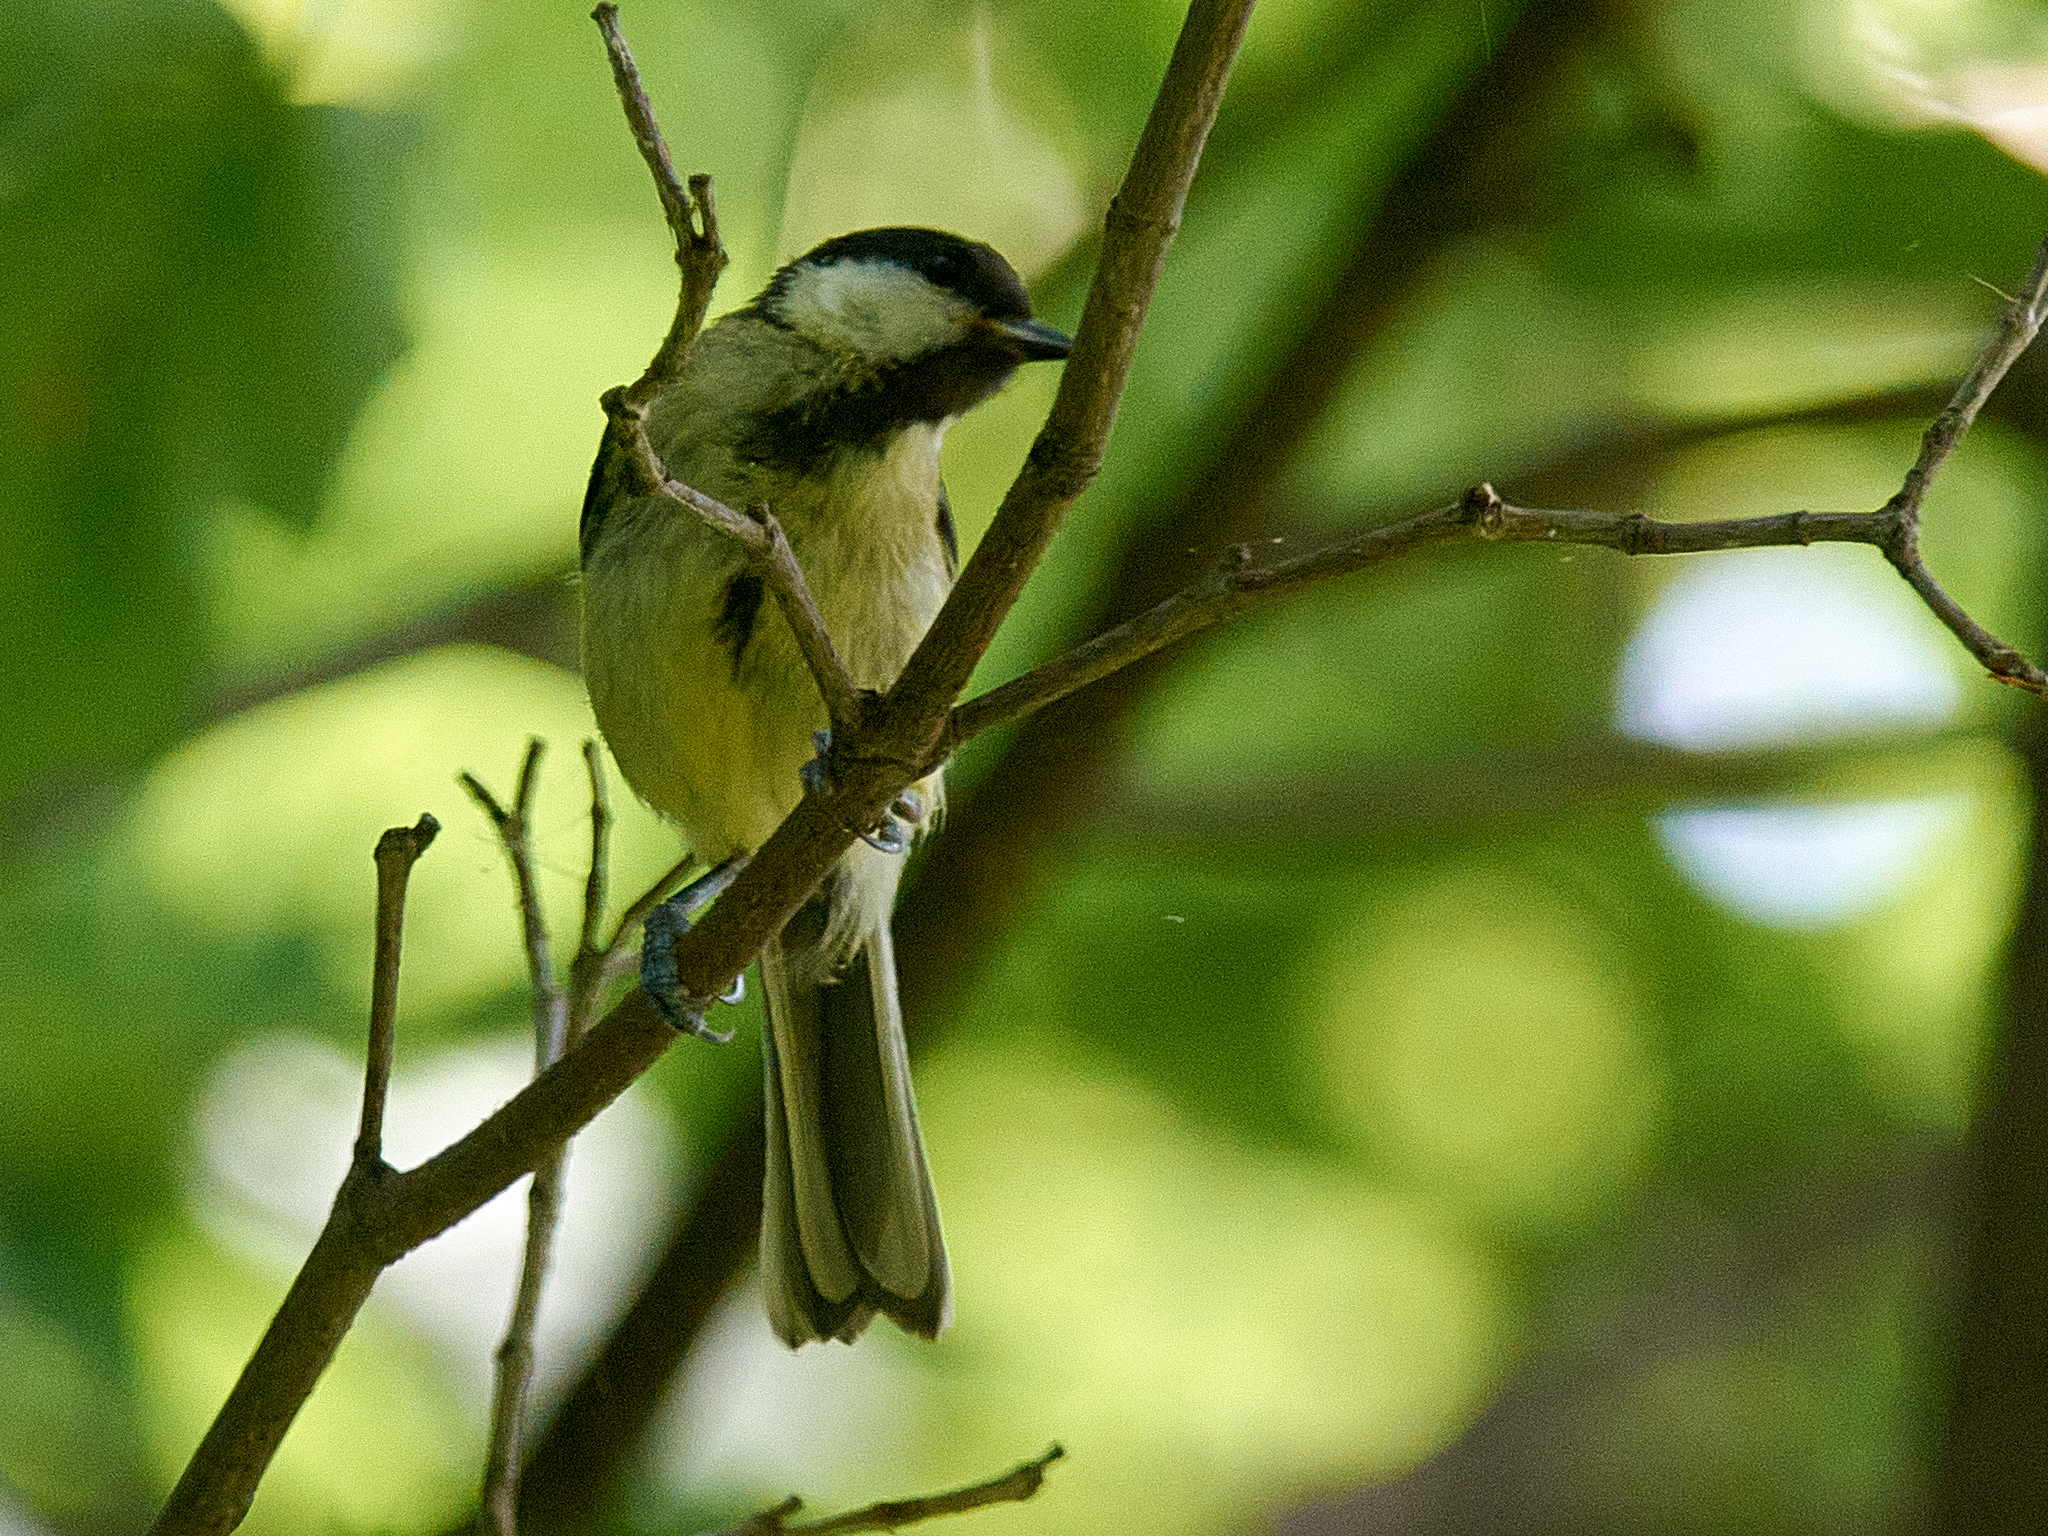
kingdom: Animalia
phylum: Chordata
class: Aves
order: Passeriformes
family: Paridae
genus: Parus
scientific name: Parus major
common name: Great tit
